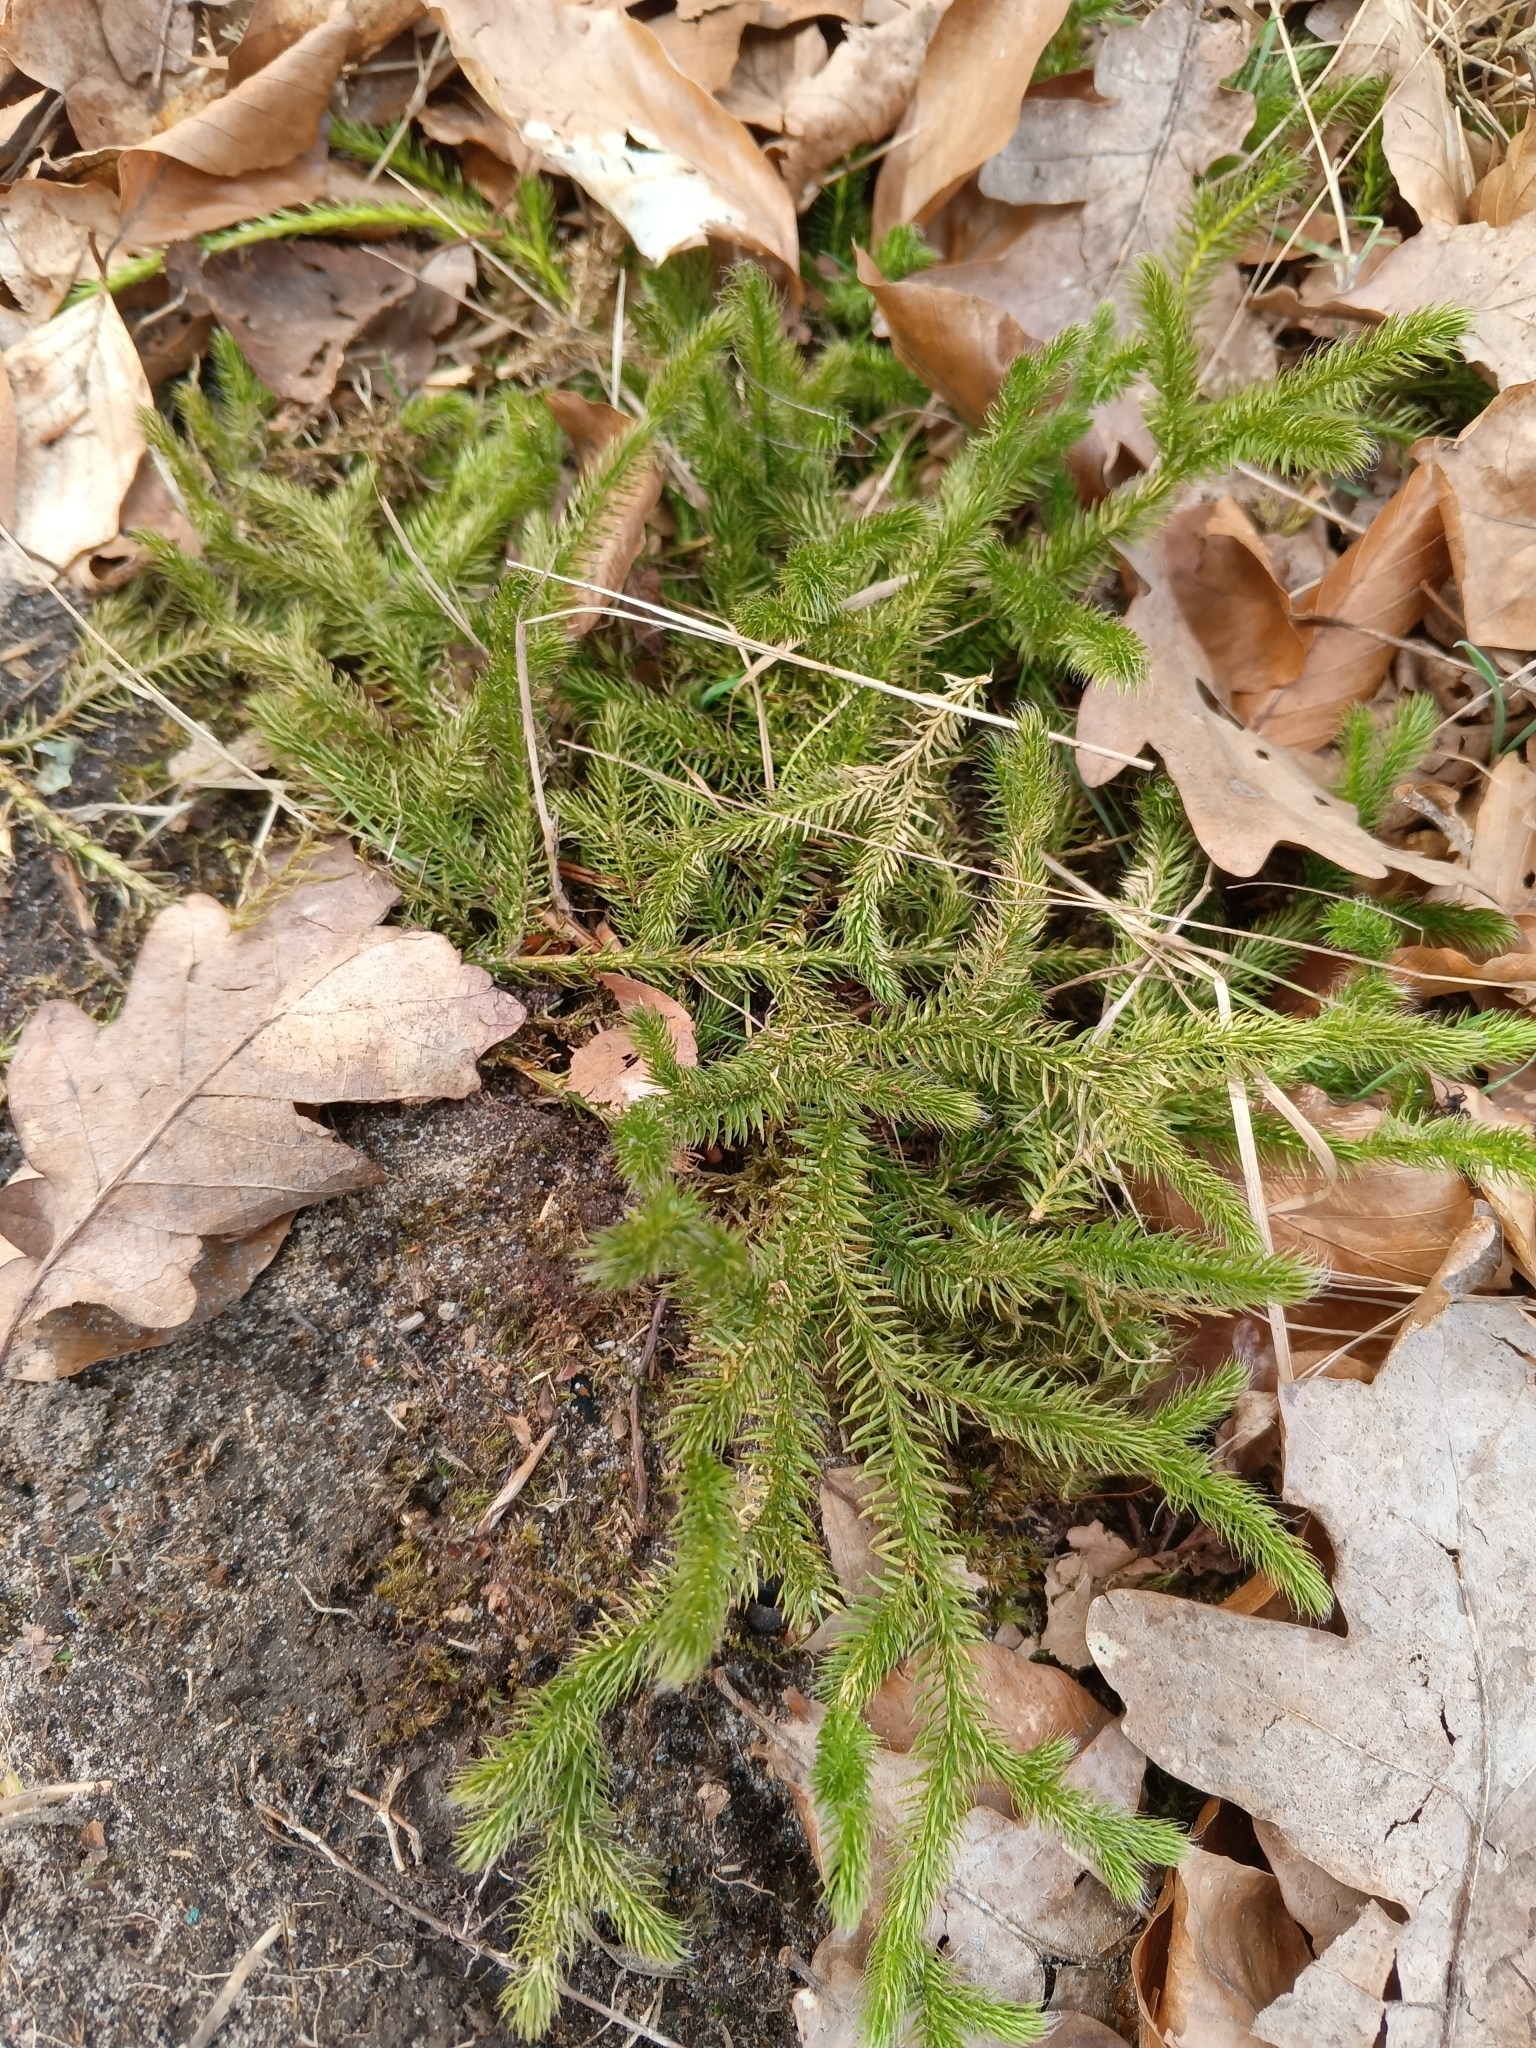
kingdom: Plantae
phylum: Tracheophyta
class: Lycopodiopsida
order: Lycopodiales
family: Lycopodiaceae
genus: Lycopodium
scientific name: Lycopodium clavatum
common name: Stag's-horn clubmoss
